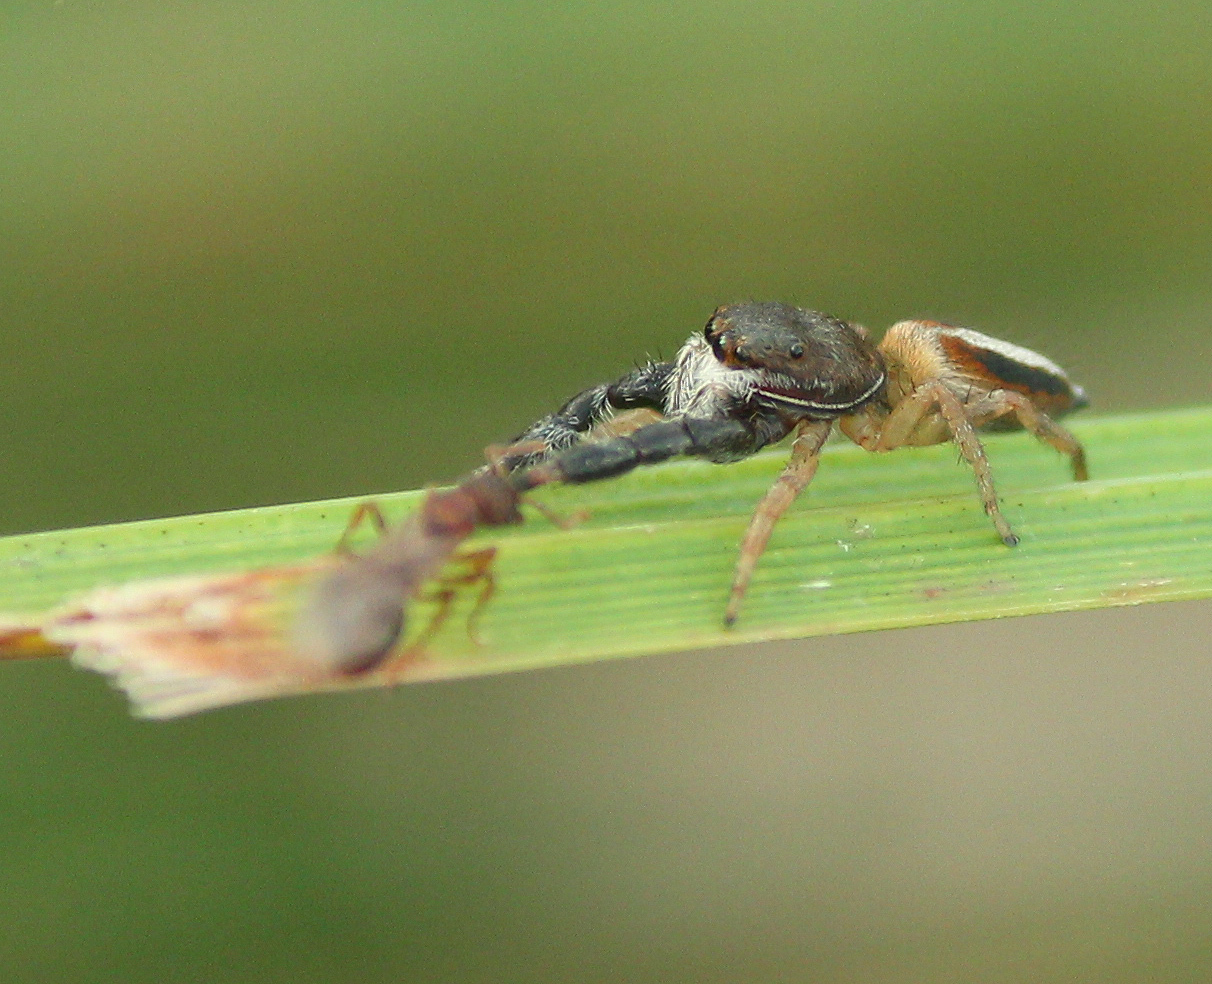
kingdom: Animalia
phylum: Arthropoda
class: Arachnida
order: Araneae
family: Salticidae
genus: Marpissa
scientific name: Marpissa formosa
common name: Short-bellied slender jumping spider
